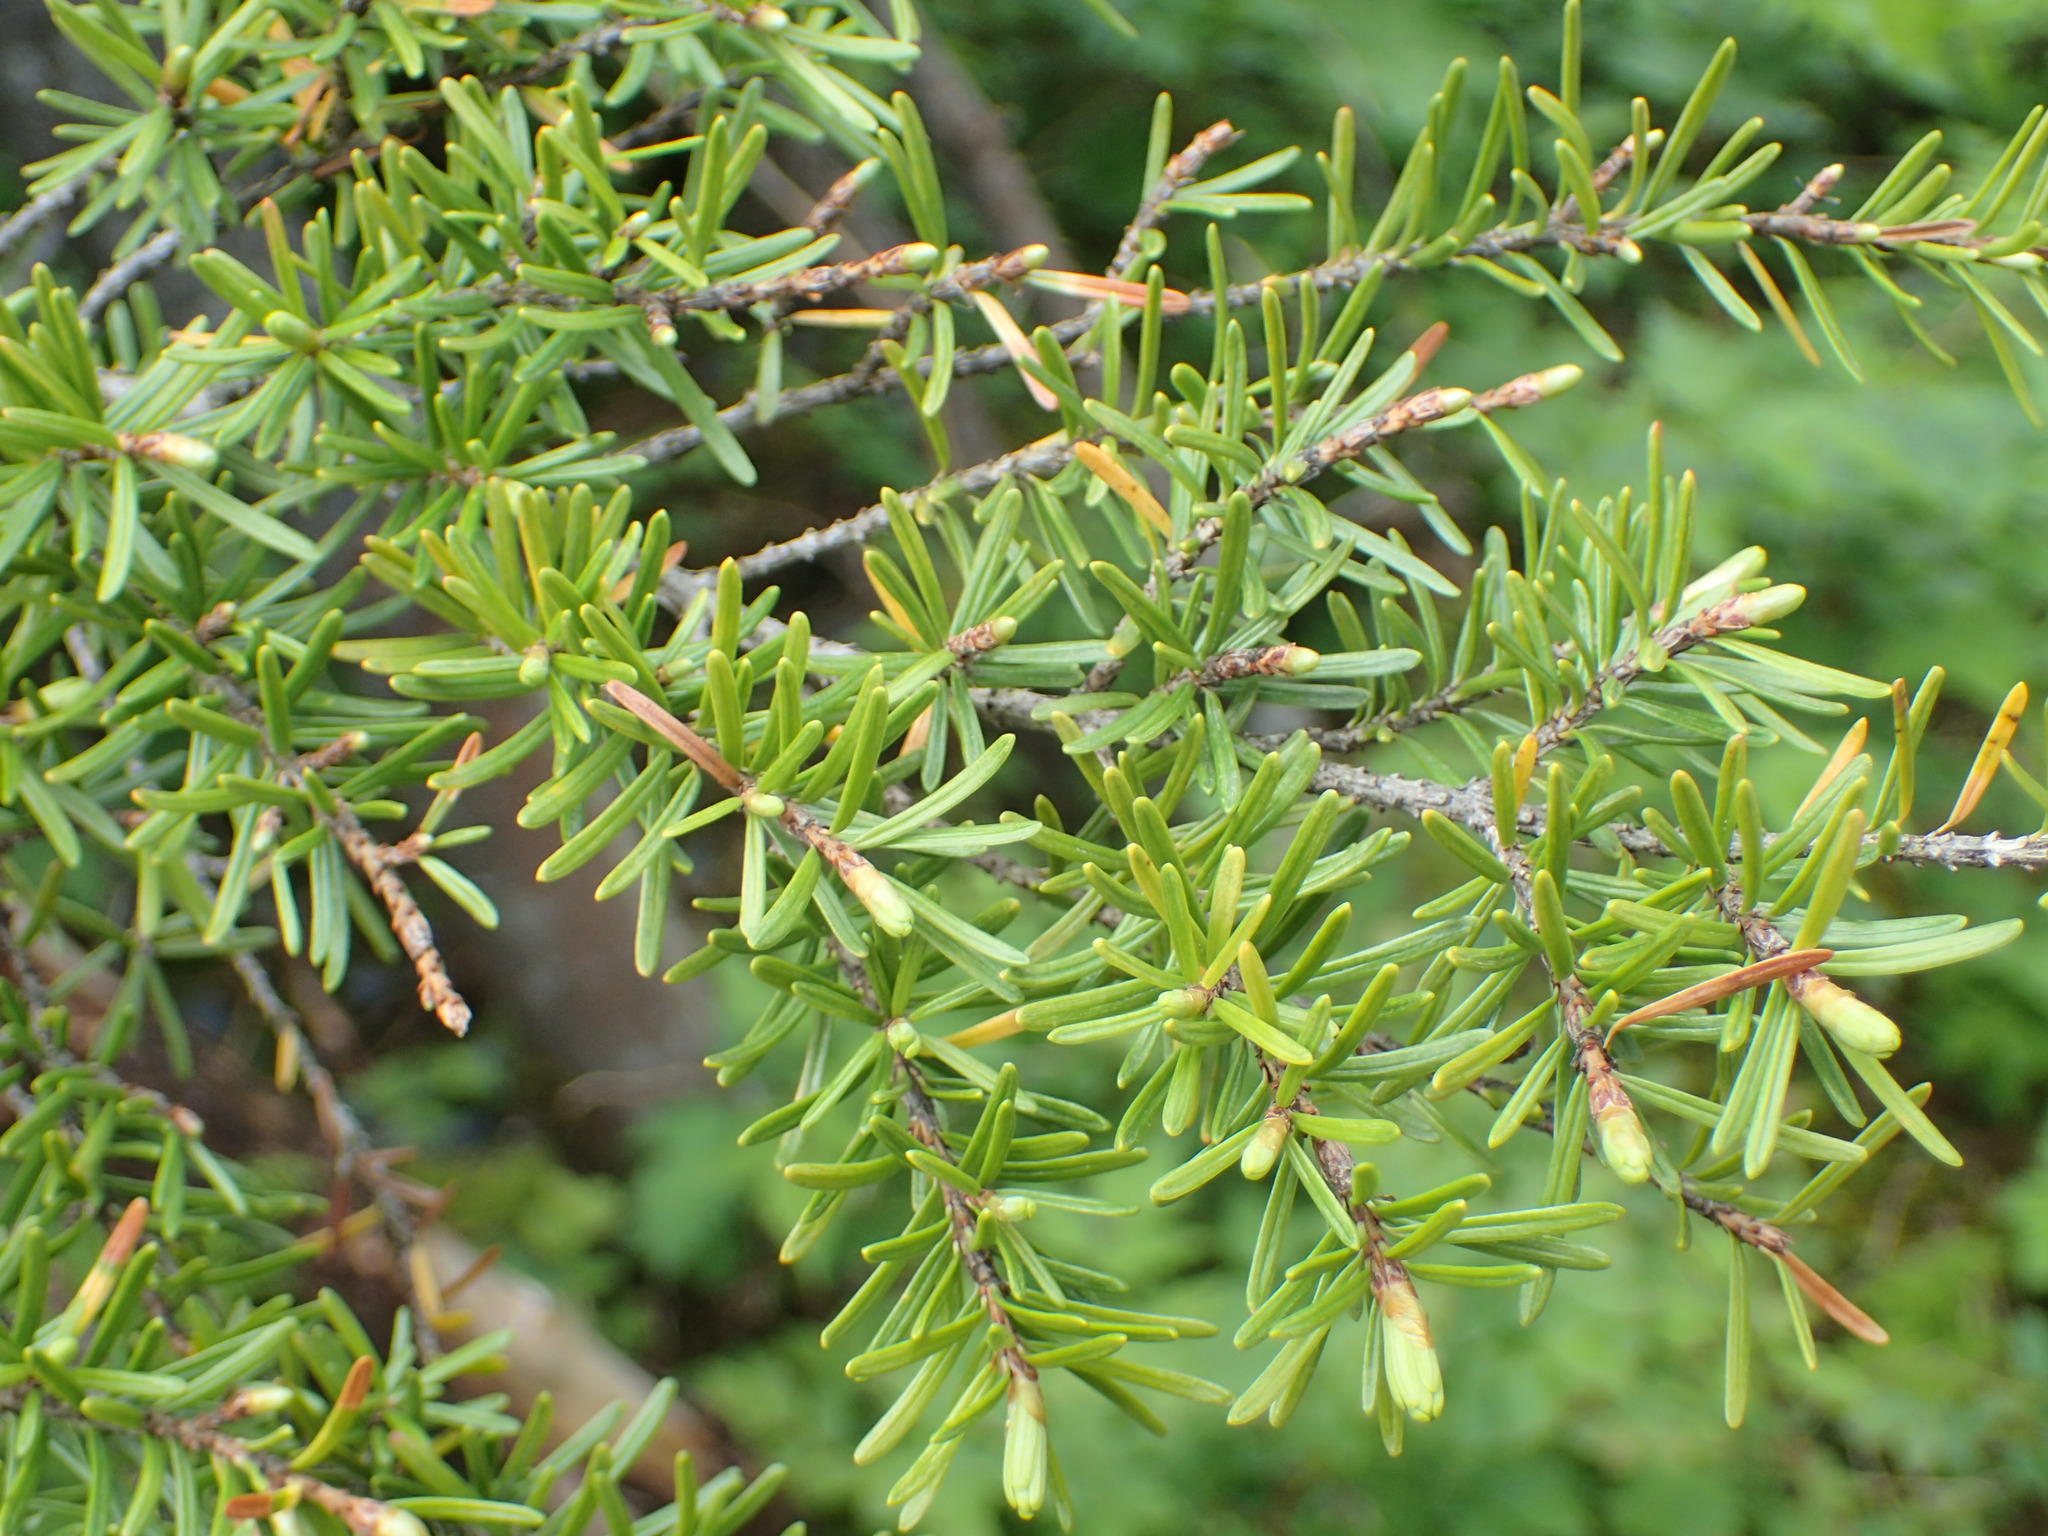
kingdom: Plantae
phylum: Tracheophyta
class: Pinopsida
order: Pinales
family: Pinaceae
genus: Tsuga
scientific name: Tsuga mertensiana
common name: Mountain hemlock
